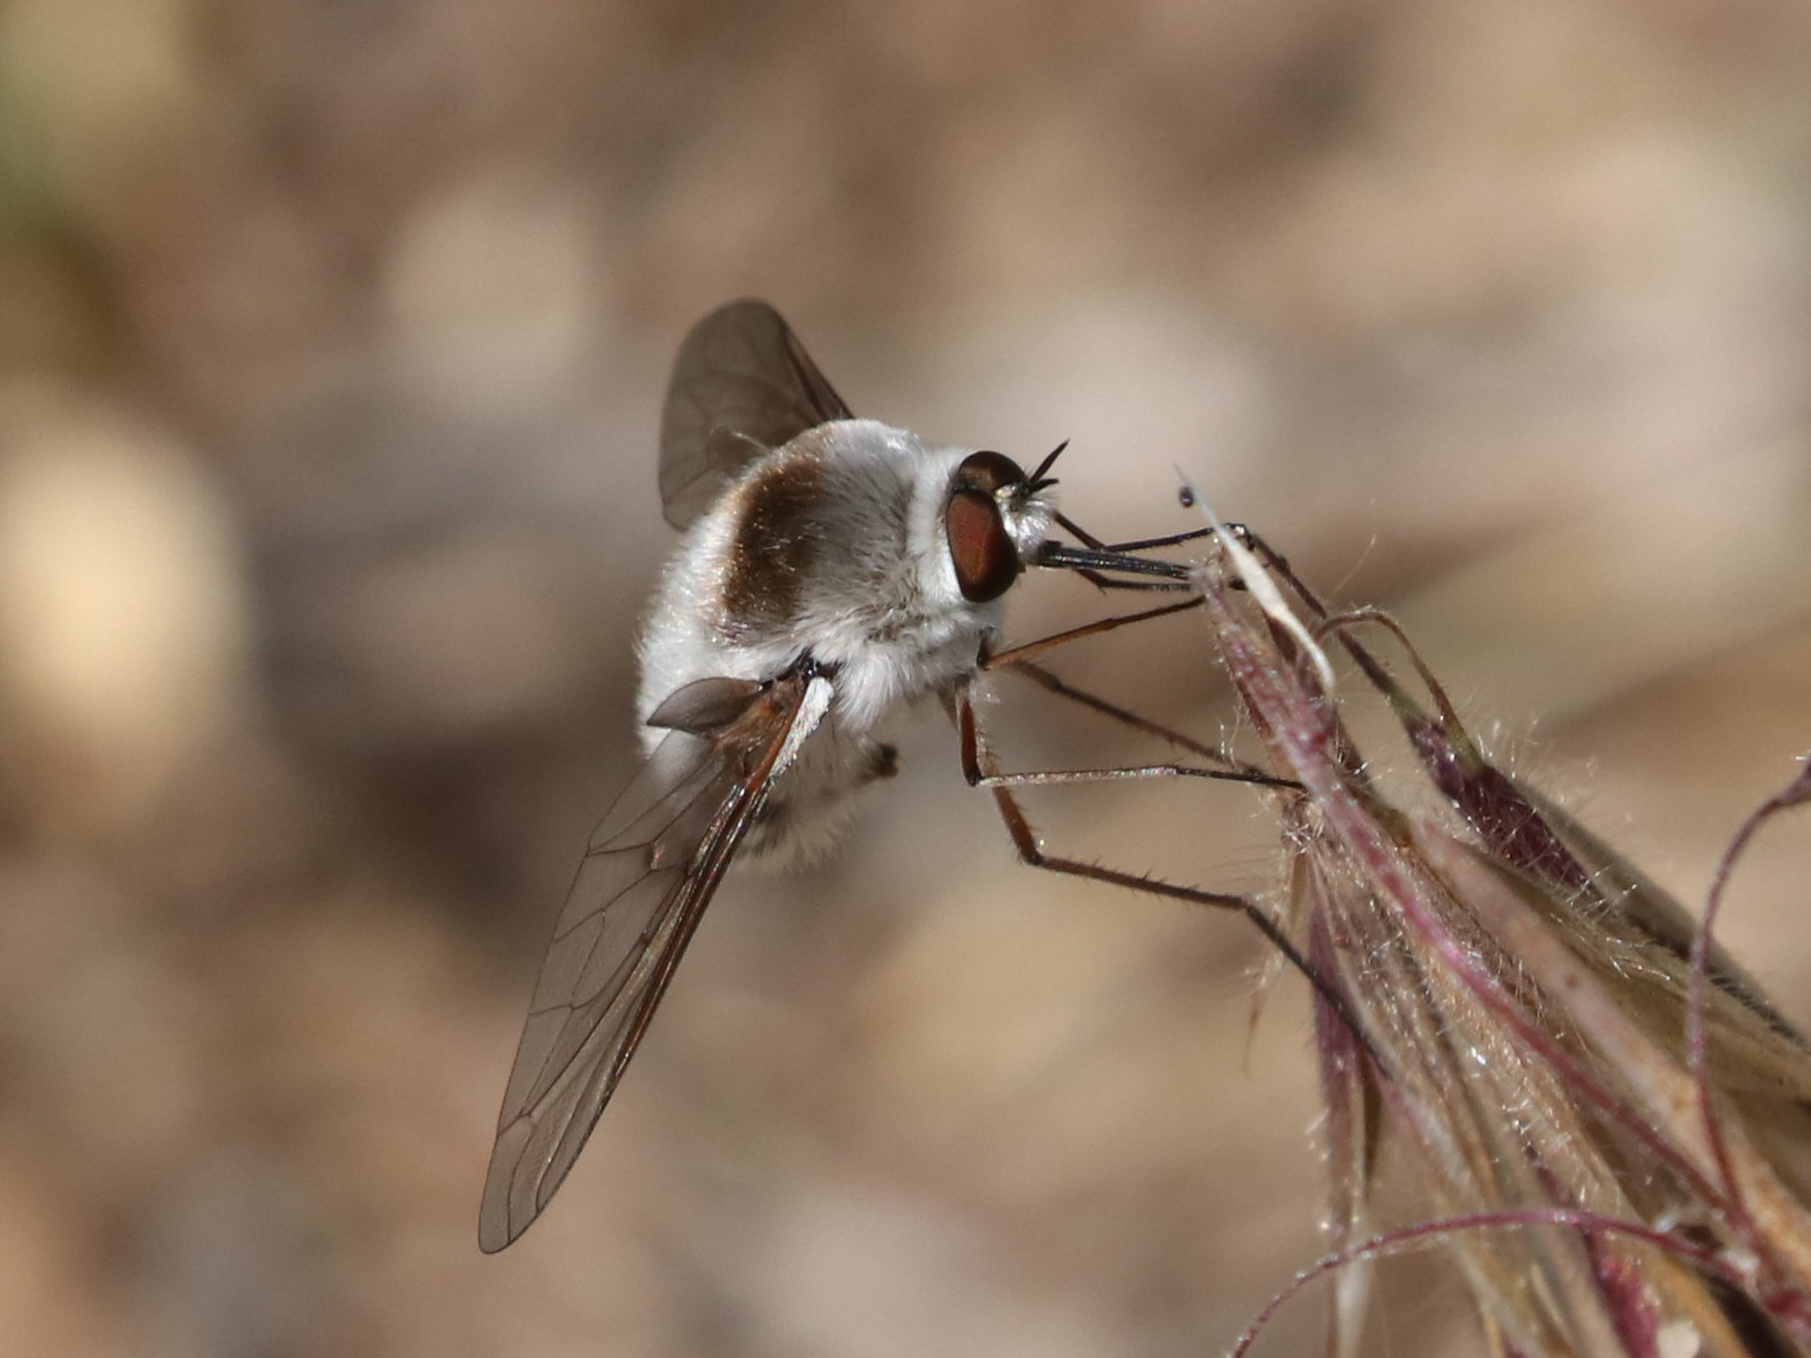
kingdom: Animalia
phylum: Arthropoda
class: Insecta
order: Diptera
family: Bombyliidae
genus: Bombylius
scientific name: Bombylius incanus
